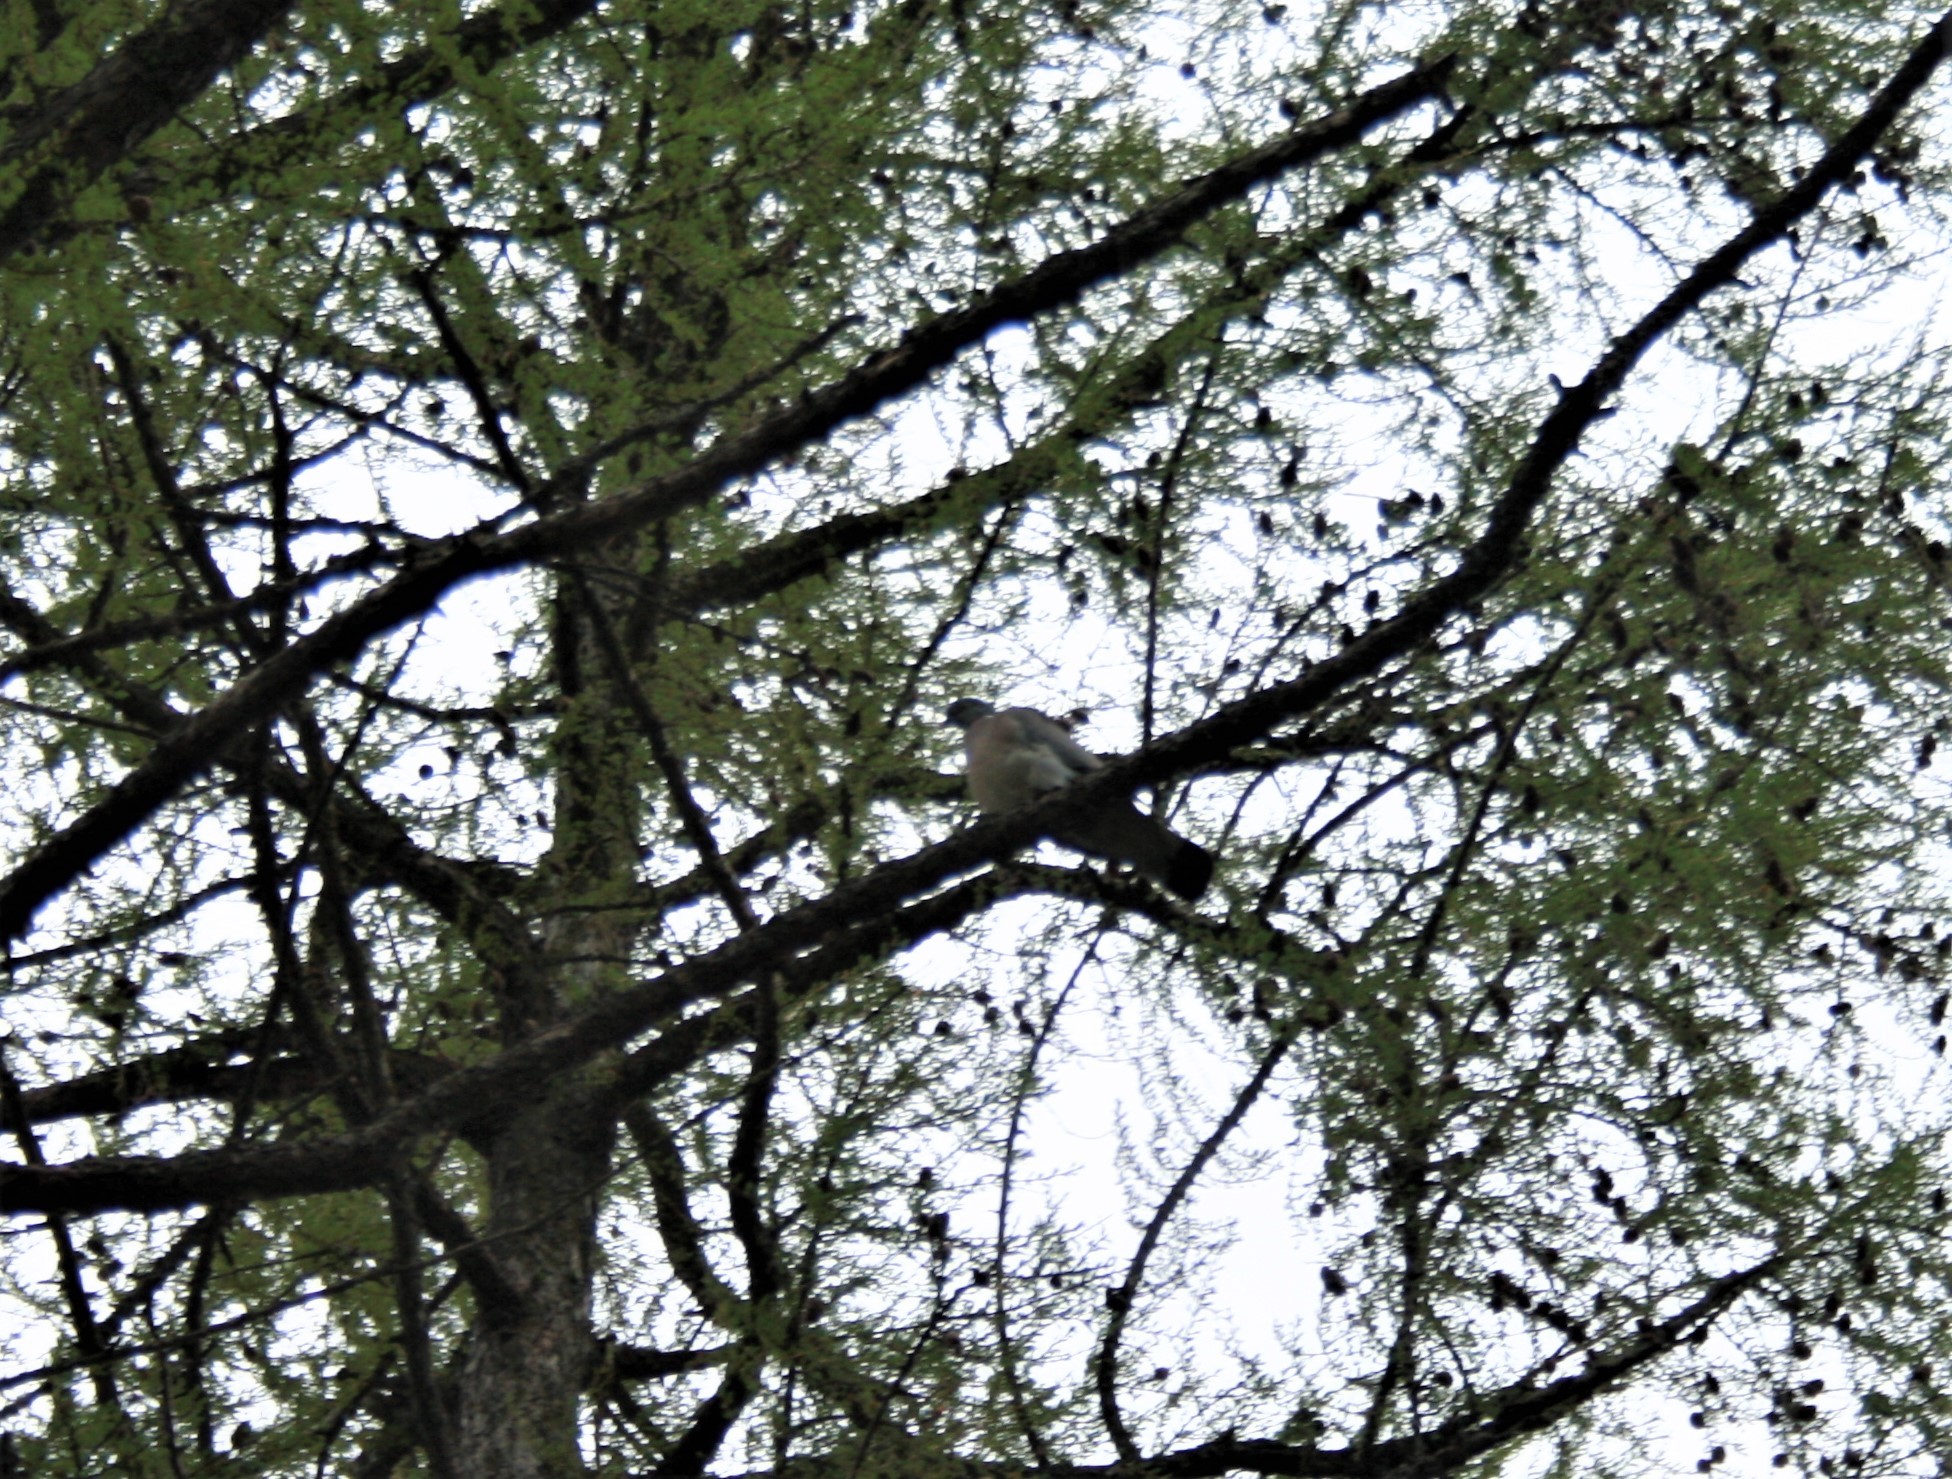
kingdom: Animalia
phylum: Chordata
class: Aves
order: Columbiformes
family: Columbidae
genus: Columba
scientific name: Columba palumbus
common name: Common wood pigeon
